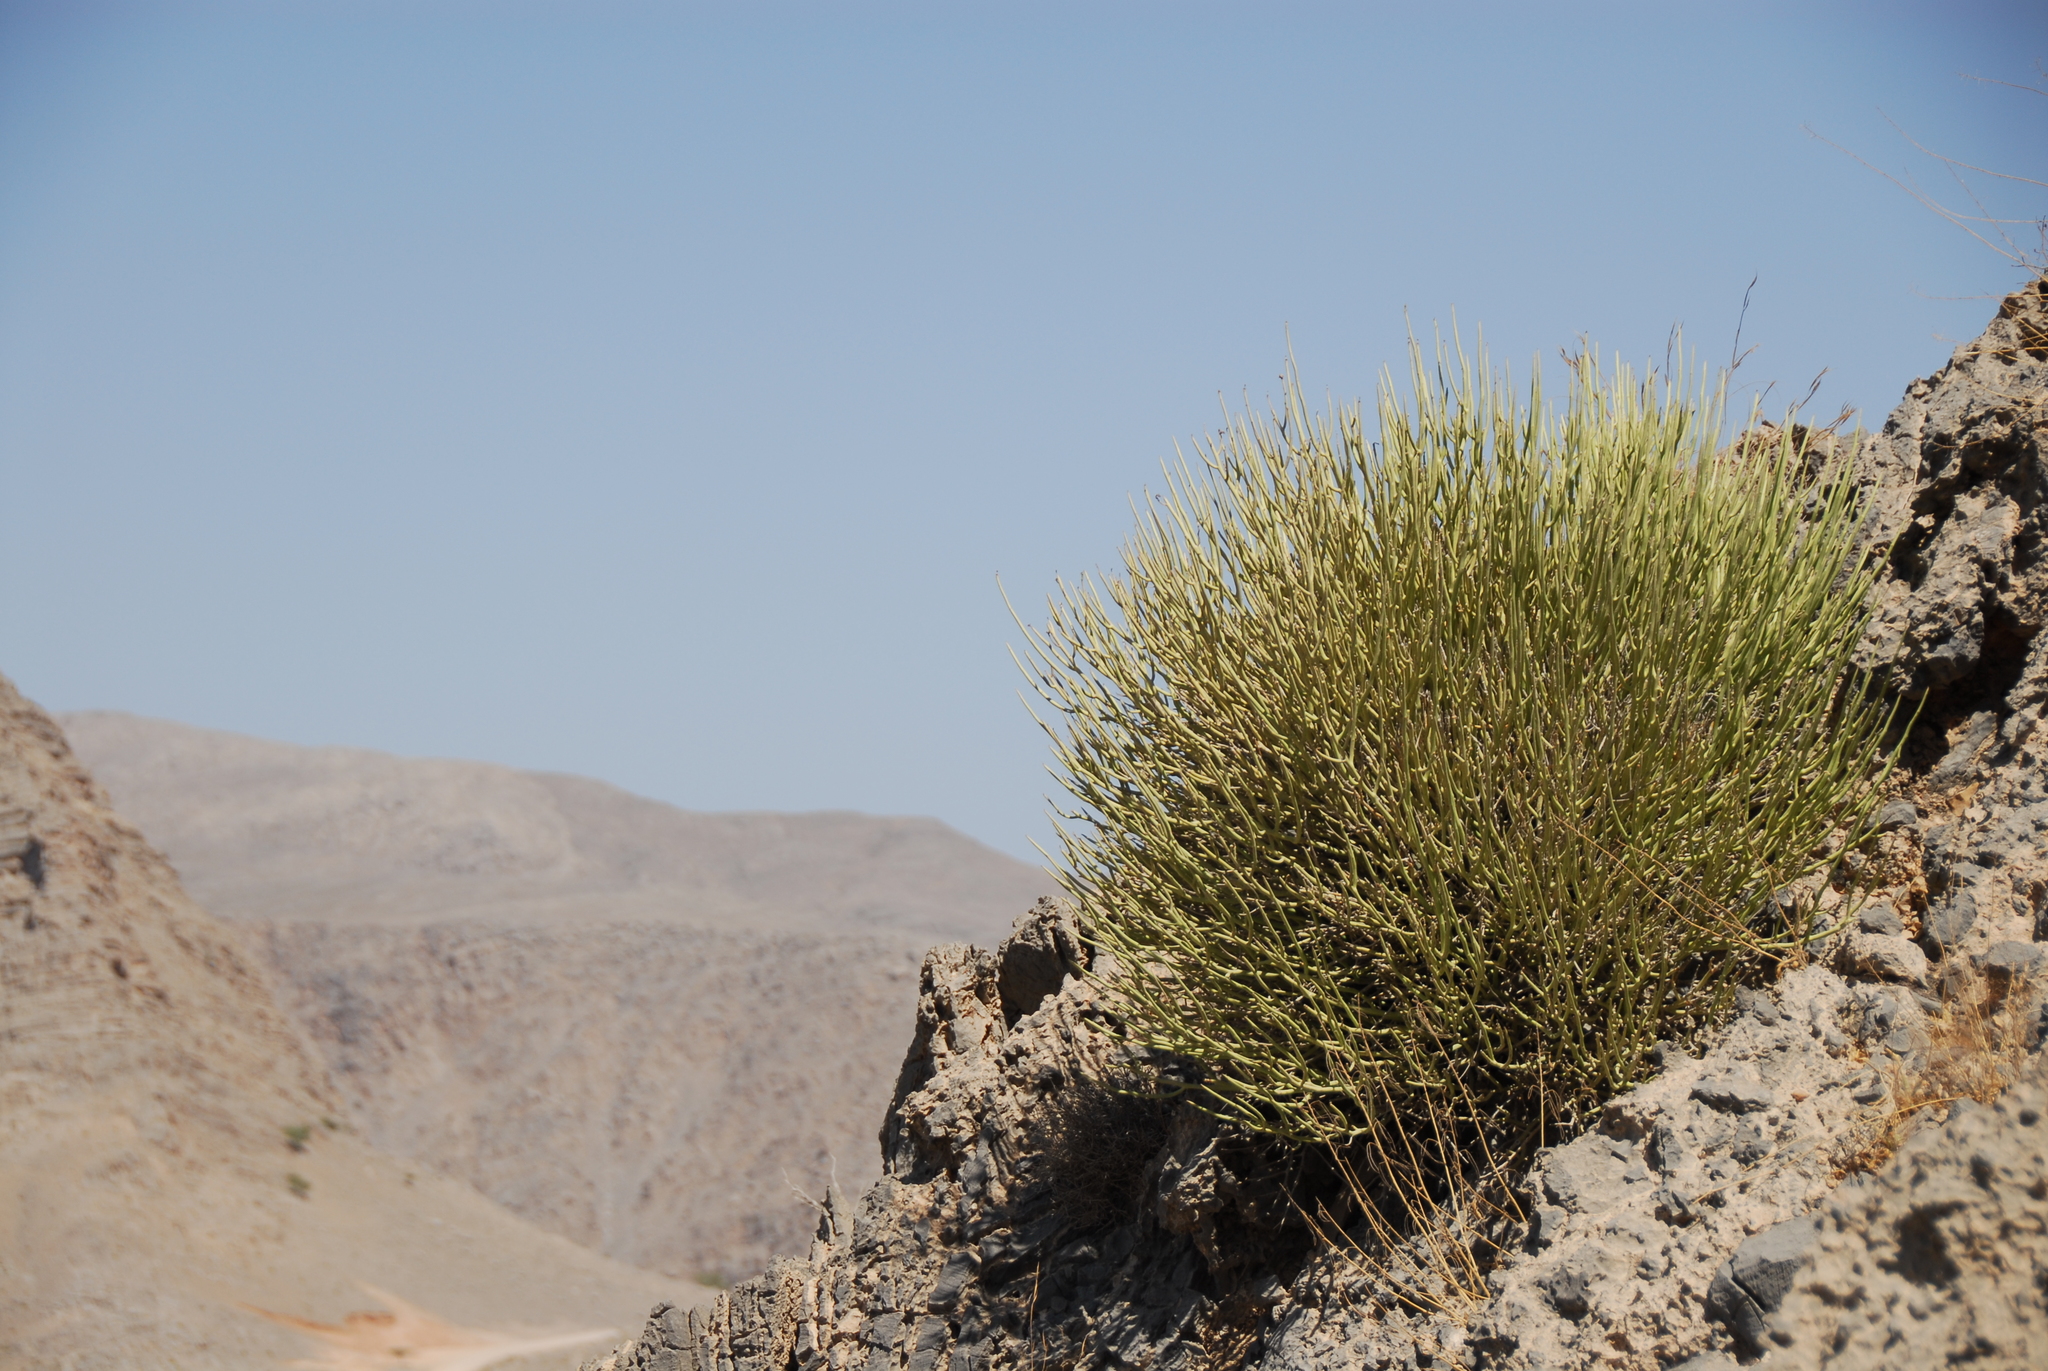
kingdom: Plantae
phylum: Tracheophyta
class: Magnoliopsida
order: Malpighiales
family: Euphorbiaceae
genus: Euphorbia
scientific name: Euphorbia larica
